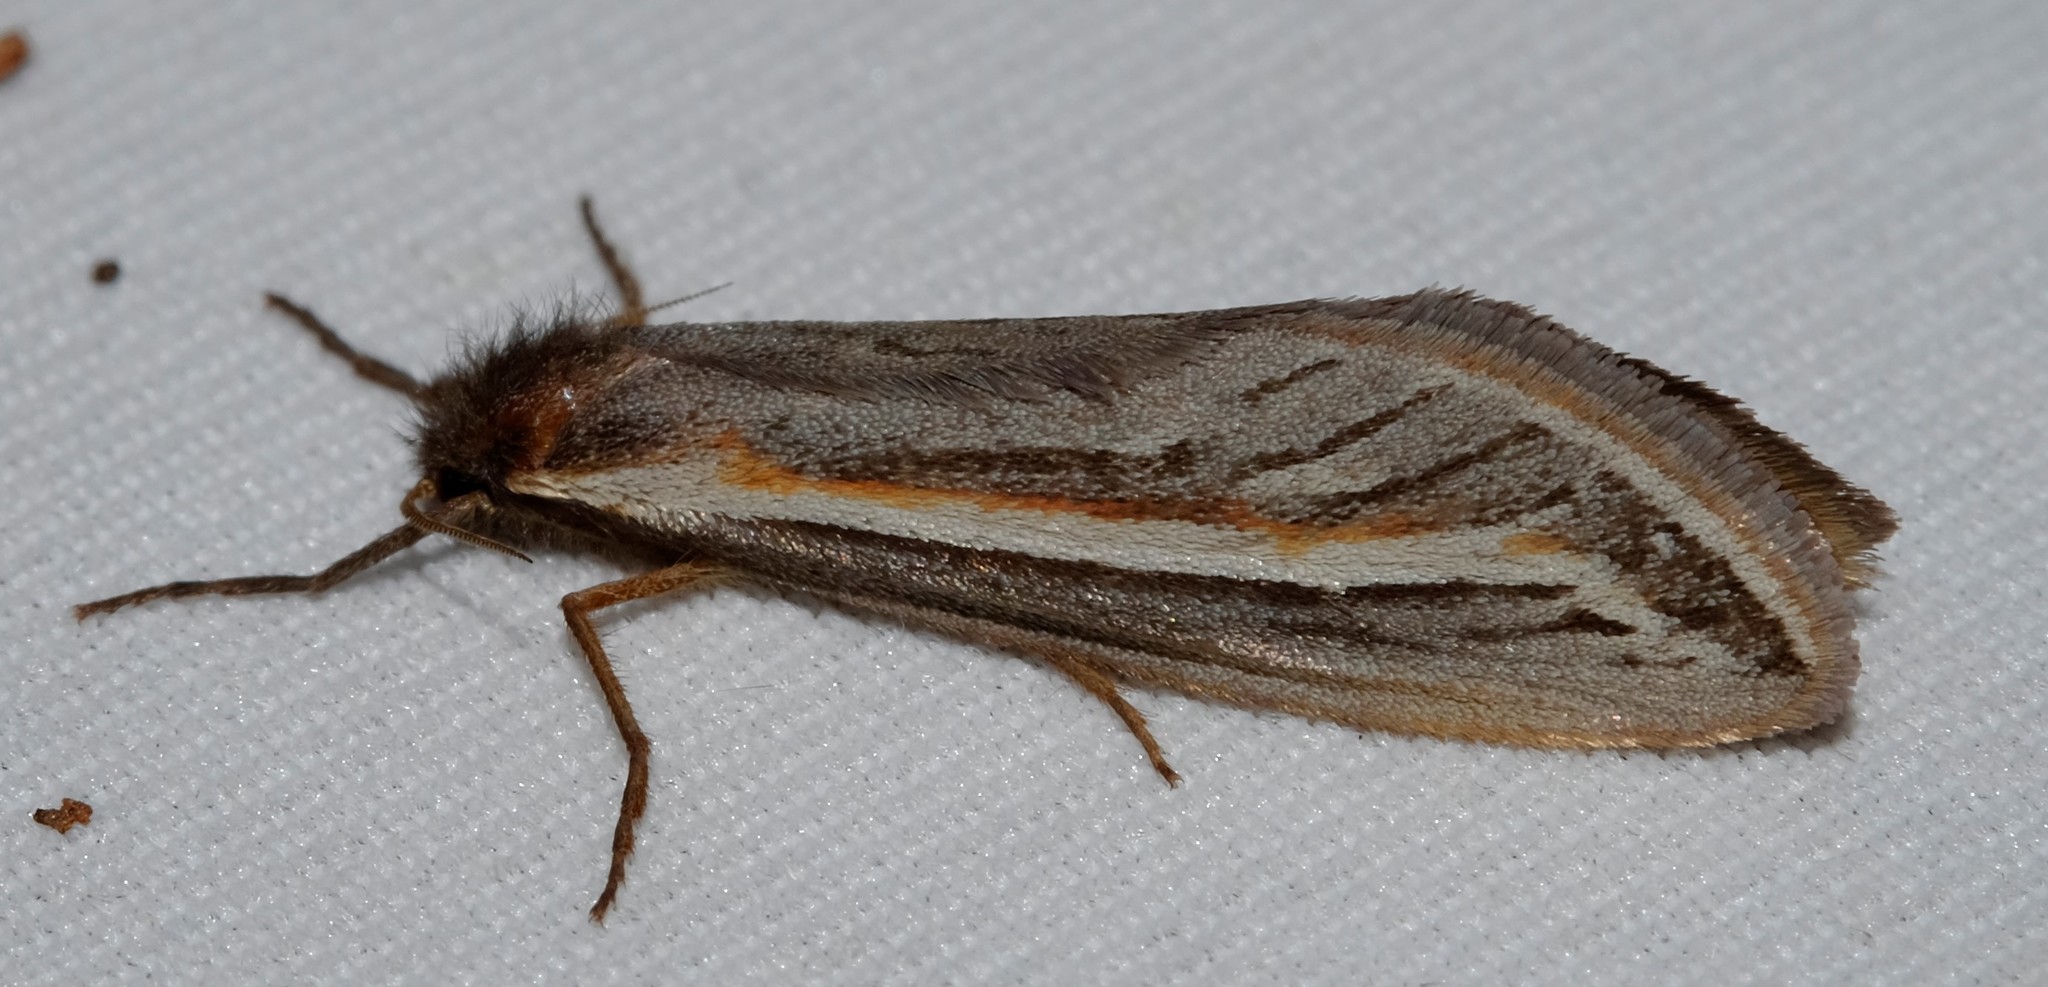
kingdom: Animalia
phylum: Arthropoda
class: Insecta
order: Lepidoptera
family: Hepialidae
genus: Fraus
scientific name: Fraus bilineata
